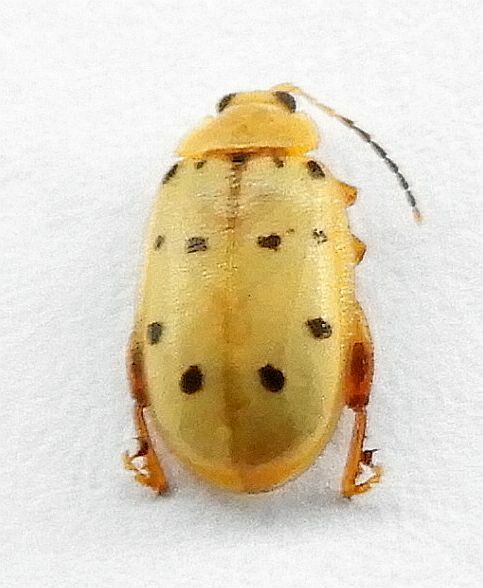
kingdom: Animalia
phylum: Arthropoda
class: Insecta
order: Coleoptera
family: Chrysomelidae
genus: Walterianella
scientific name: Walterianella
